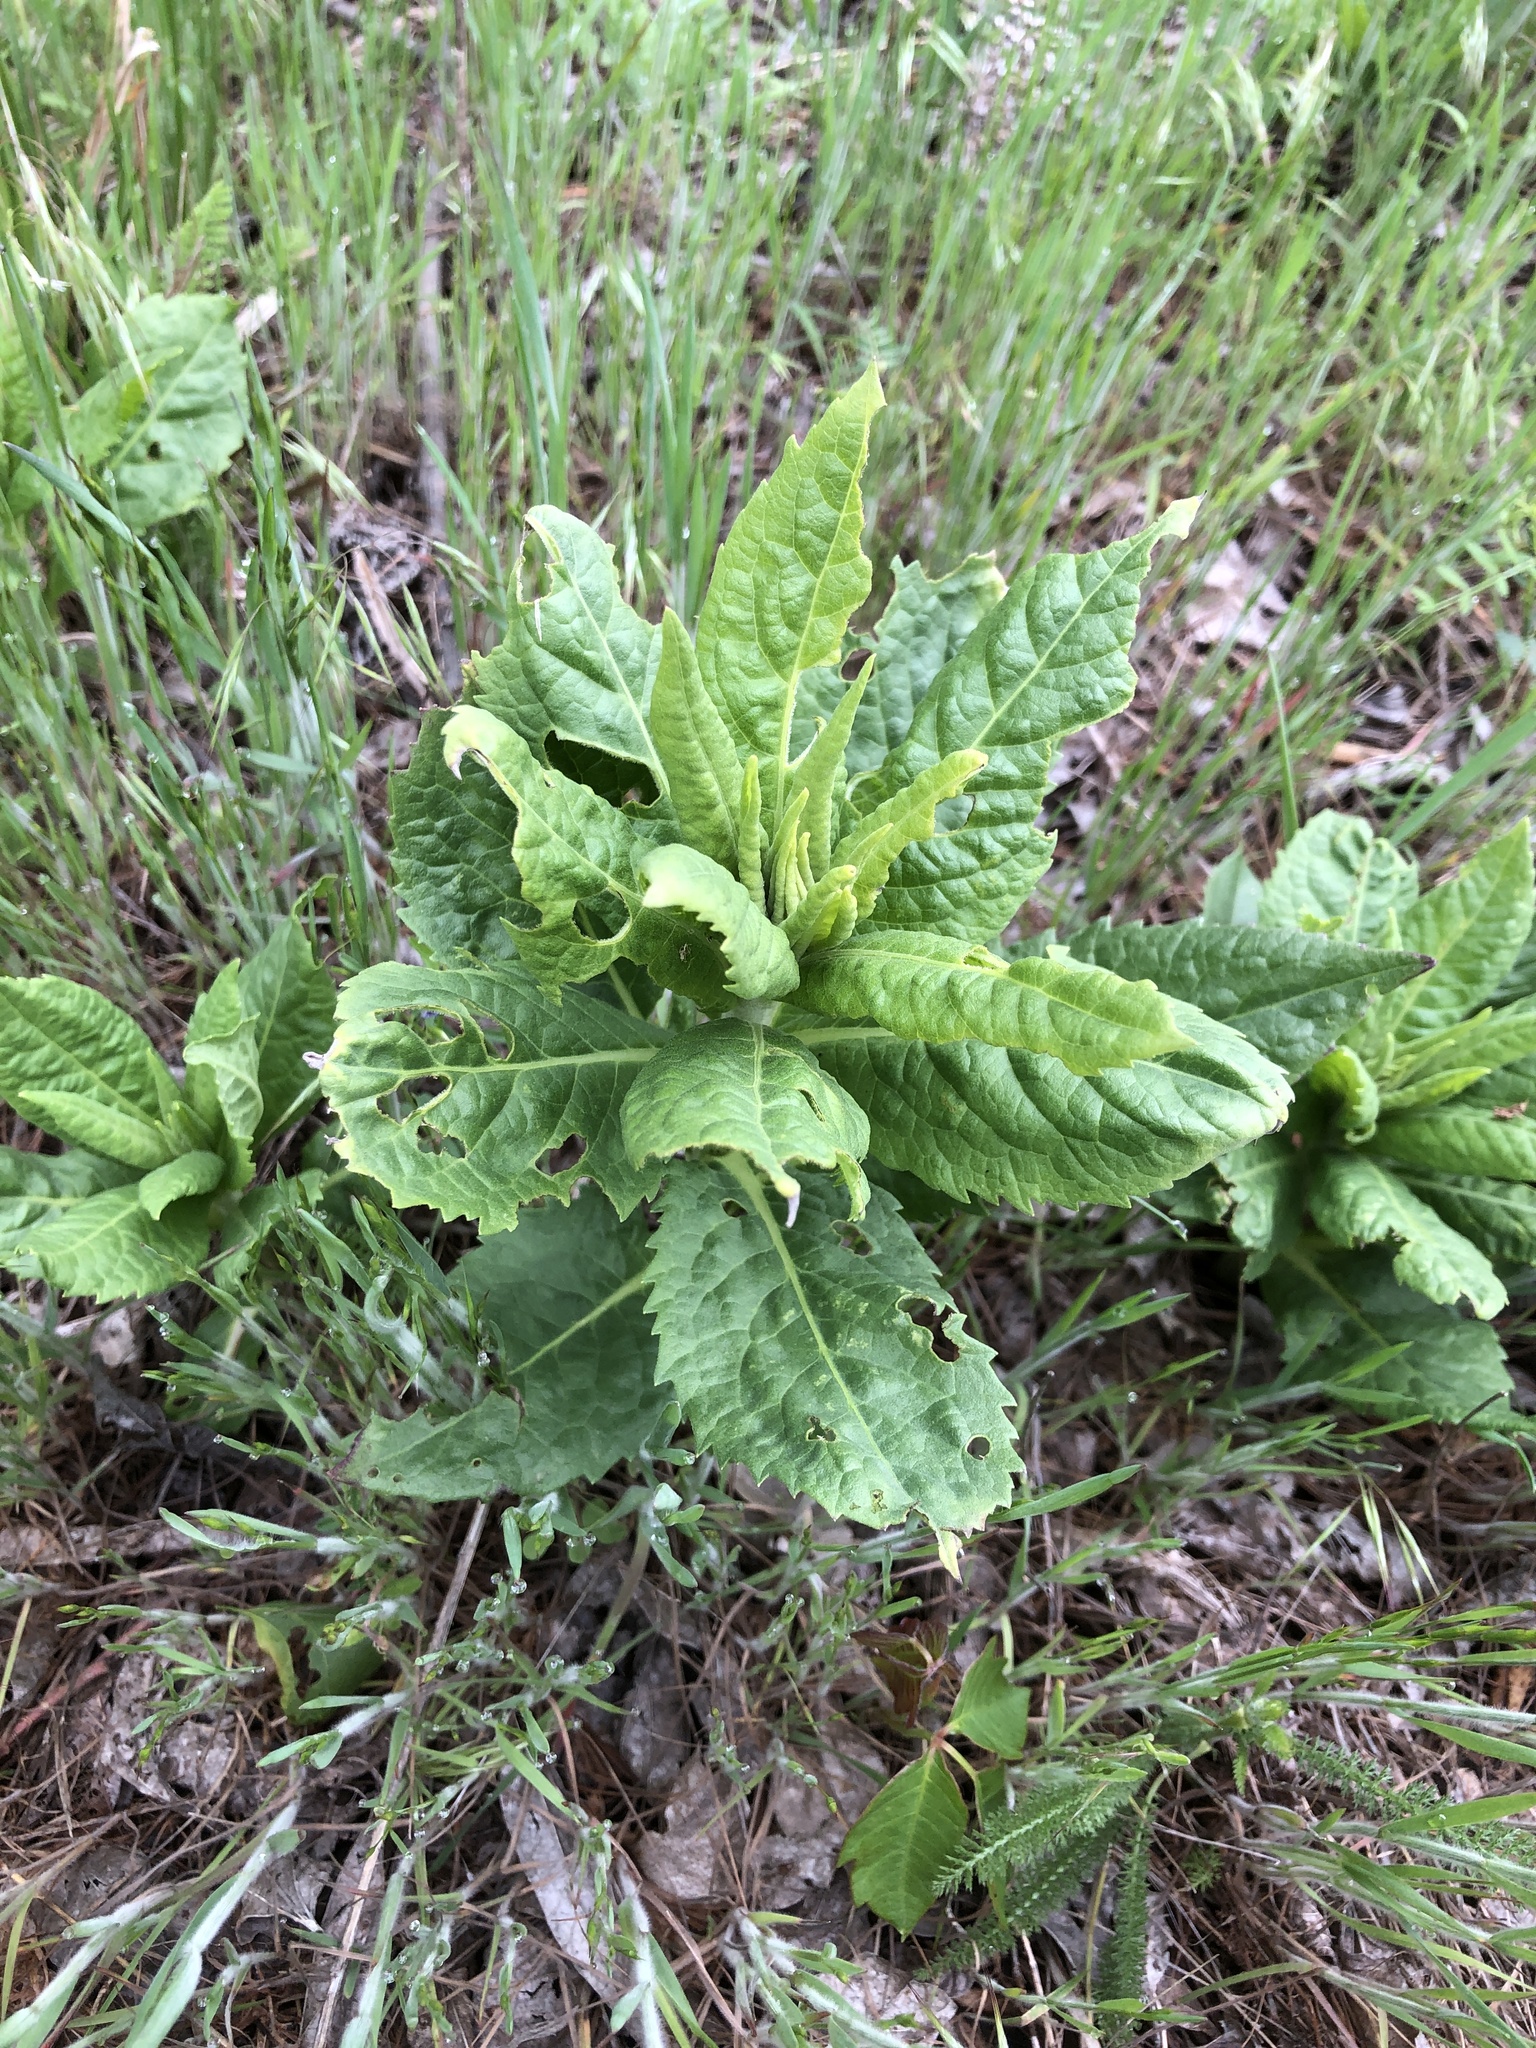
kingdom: Plantae
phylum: Tracheophyta
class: Magnoliopsida
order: Asterales
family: Asteraceae
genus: Vernonia
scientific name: Vernonia baldwinii
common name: Western ironweed
